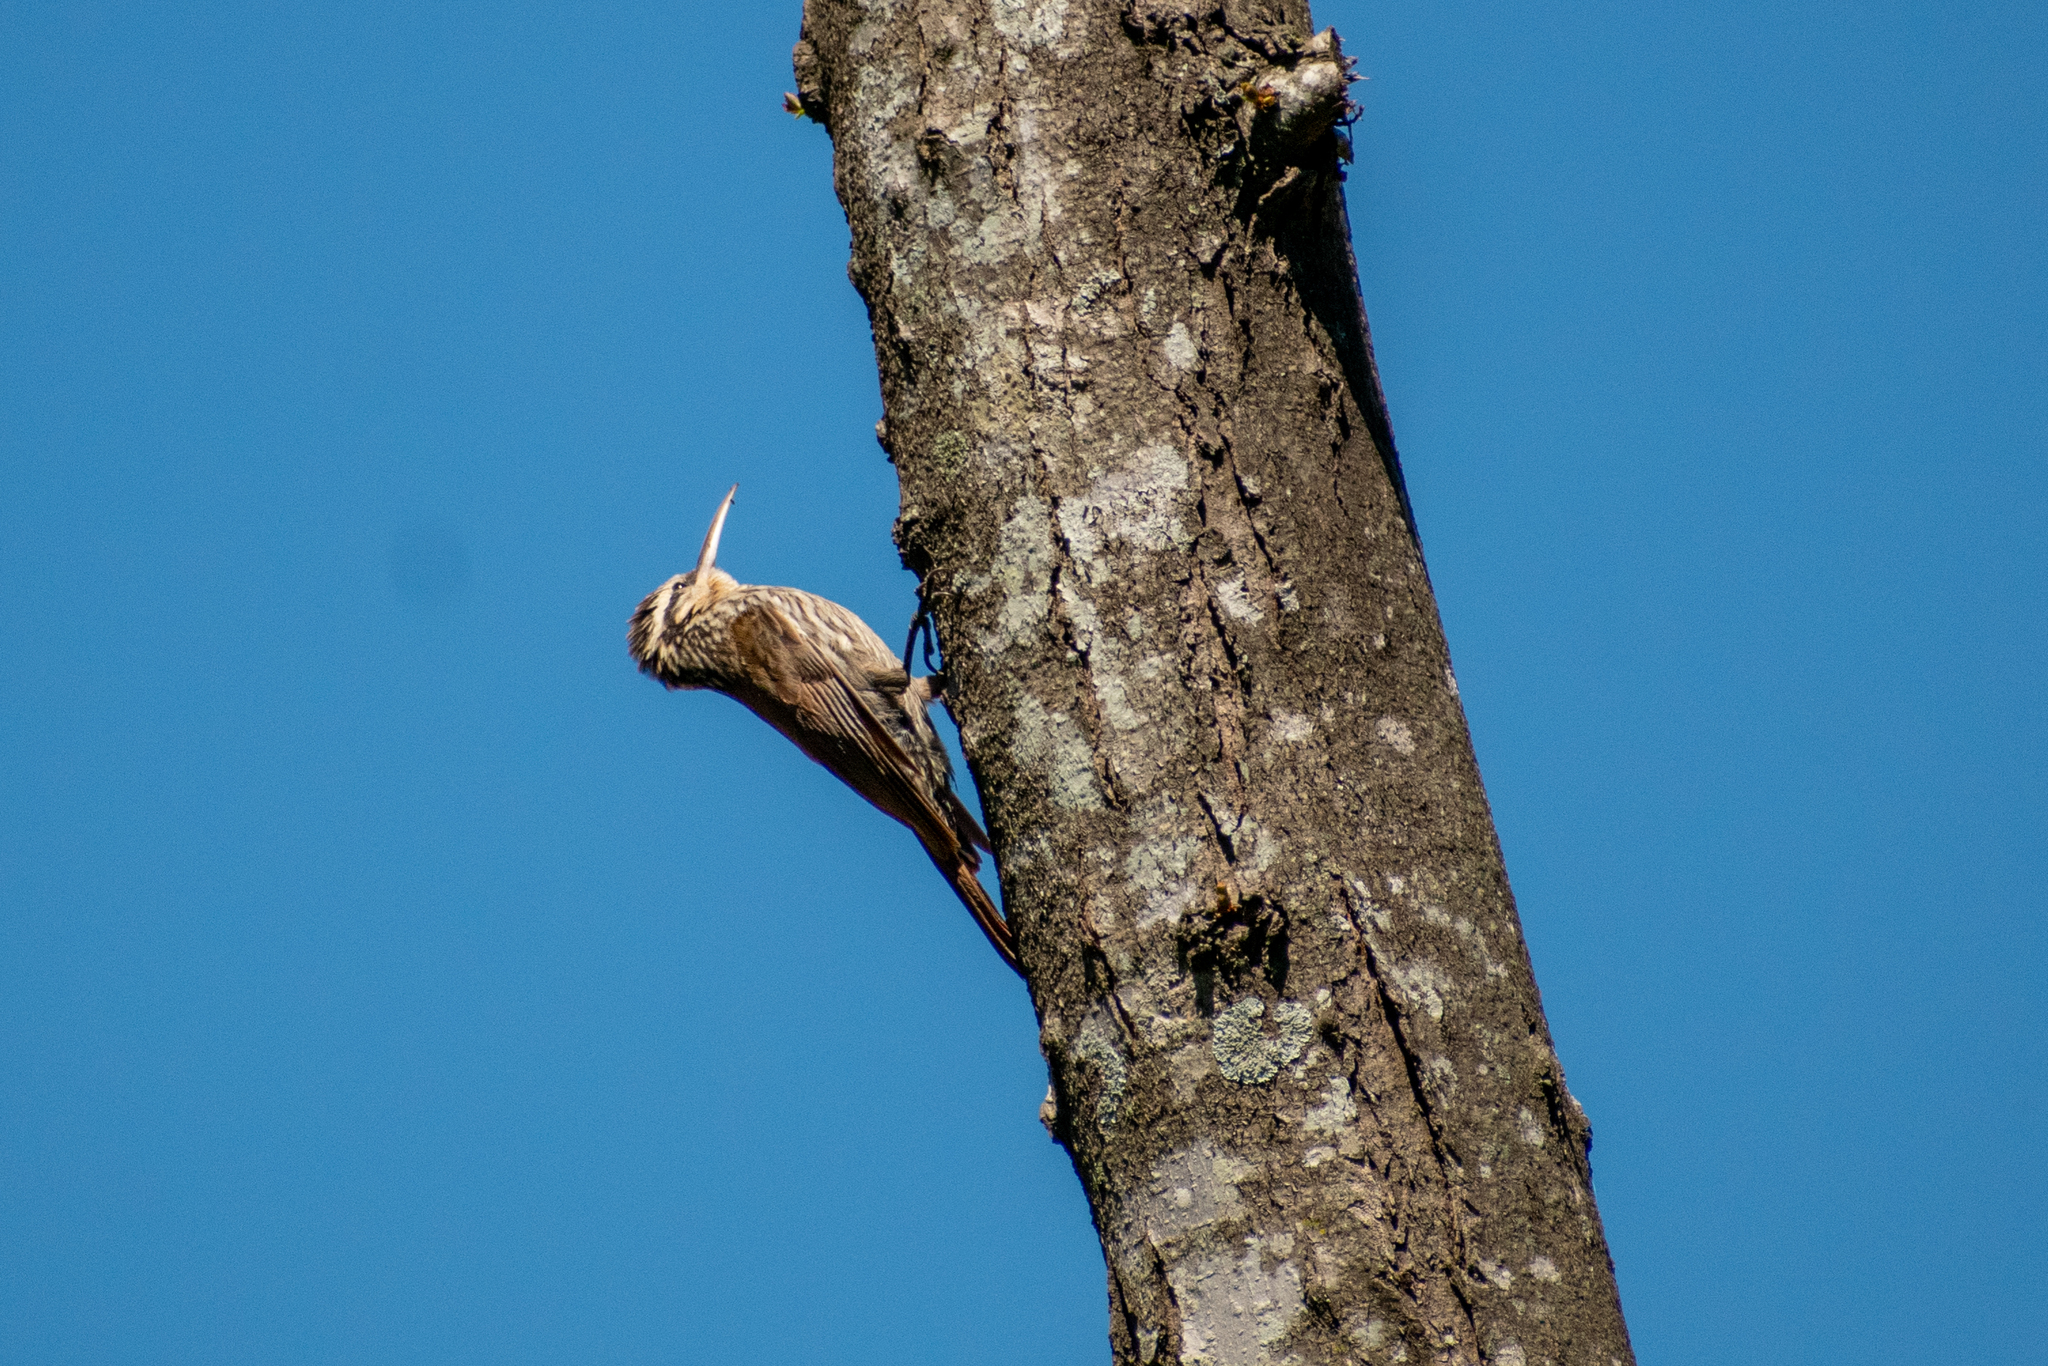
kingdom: Animalia
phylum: Chordata
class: Aves
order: Passeriformes
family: Furnariidae
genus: Lepidocolaptes
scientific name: Lepidocolaptes angustirostris
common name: Narrow-billed woodcreeper
